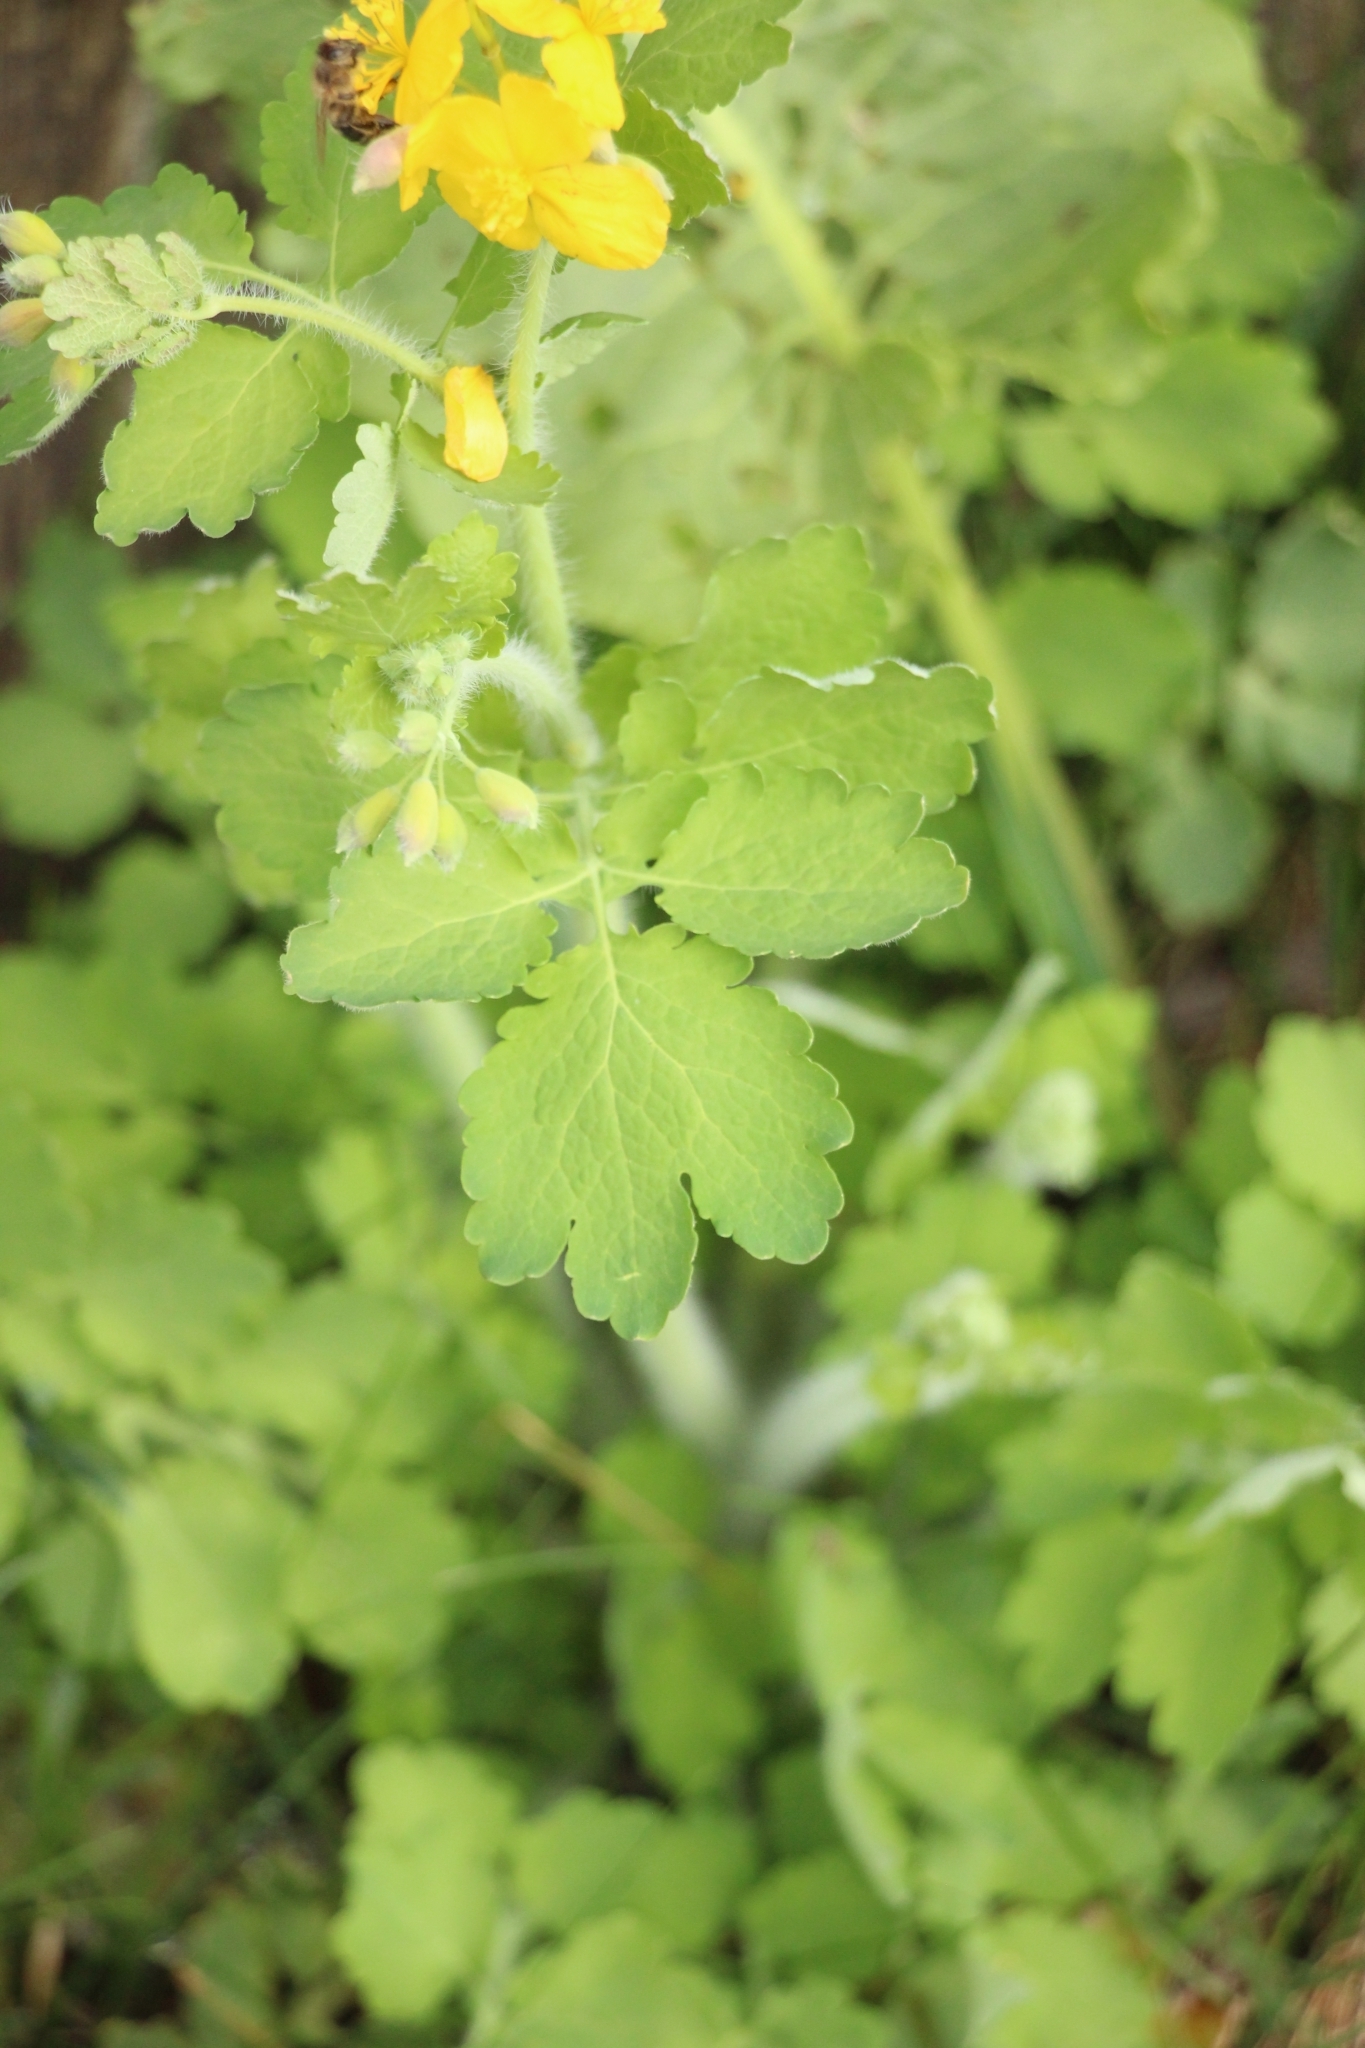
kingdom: Plantae
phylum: Tracheophyta
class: Magnoliopsida
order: Ranunculales
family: Papaveraceae
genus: Chelidonium
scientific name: Chelidonium majus
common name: Greater celandine
